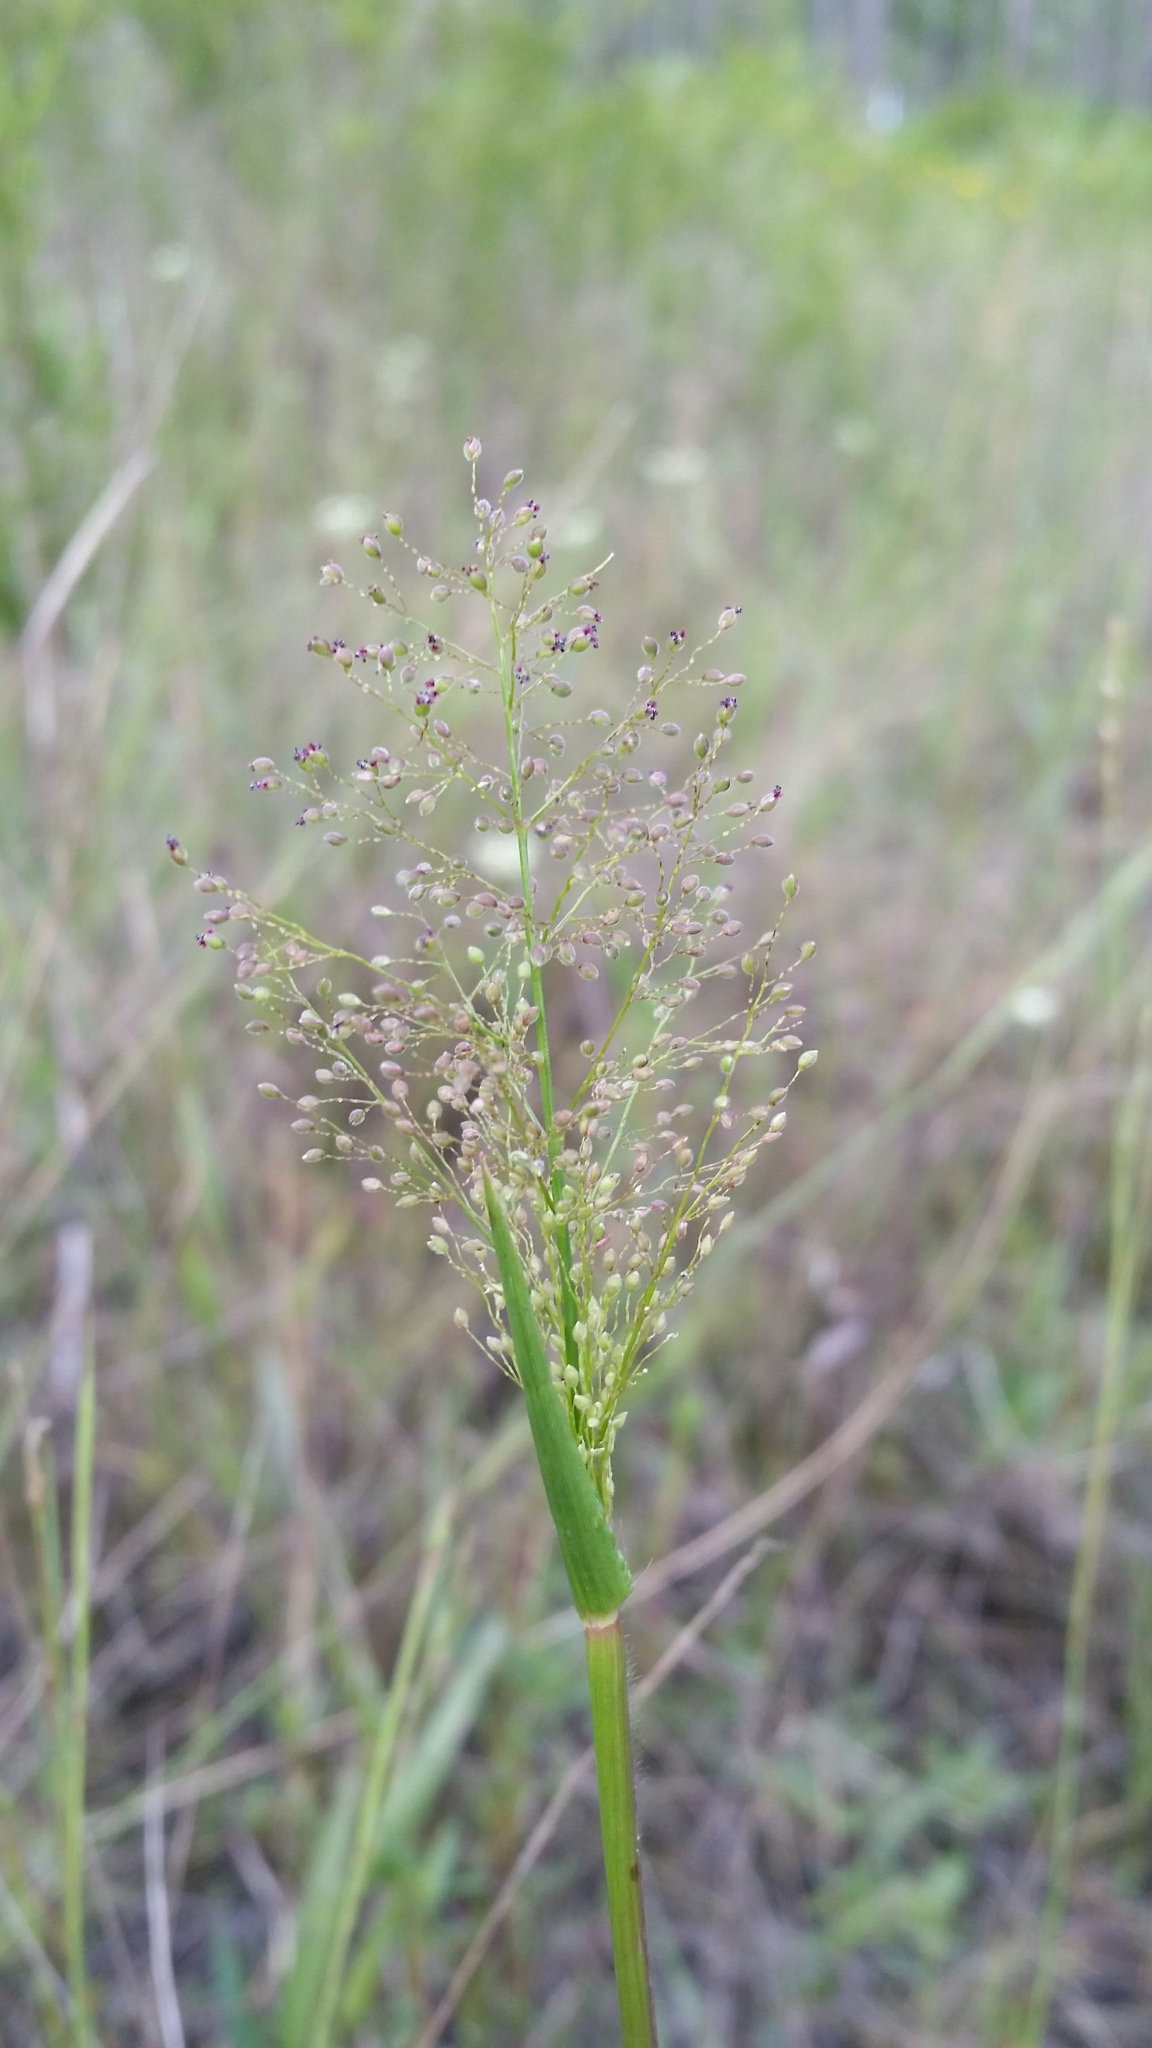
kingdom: Plantae
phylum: Tracheophyta
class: Liliopsida
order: Poales
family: Poaceae
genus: Dichanthelium
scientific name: Dichanthelium erectifolium
